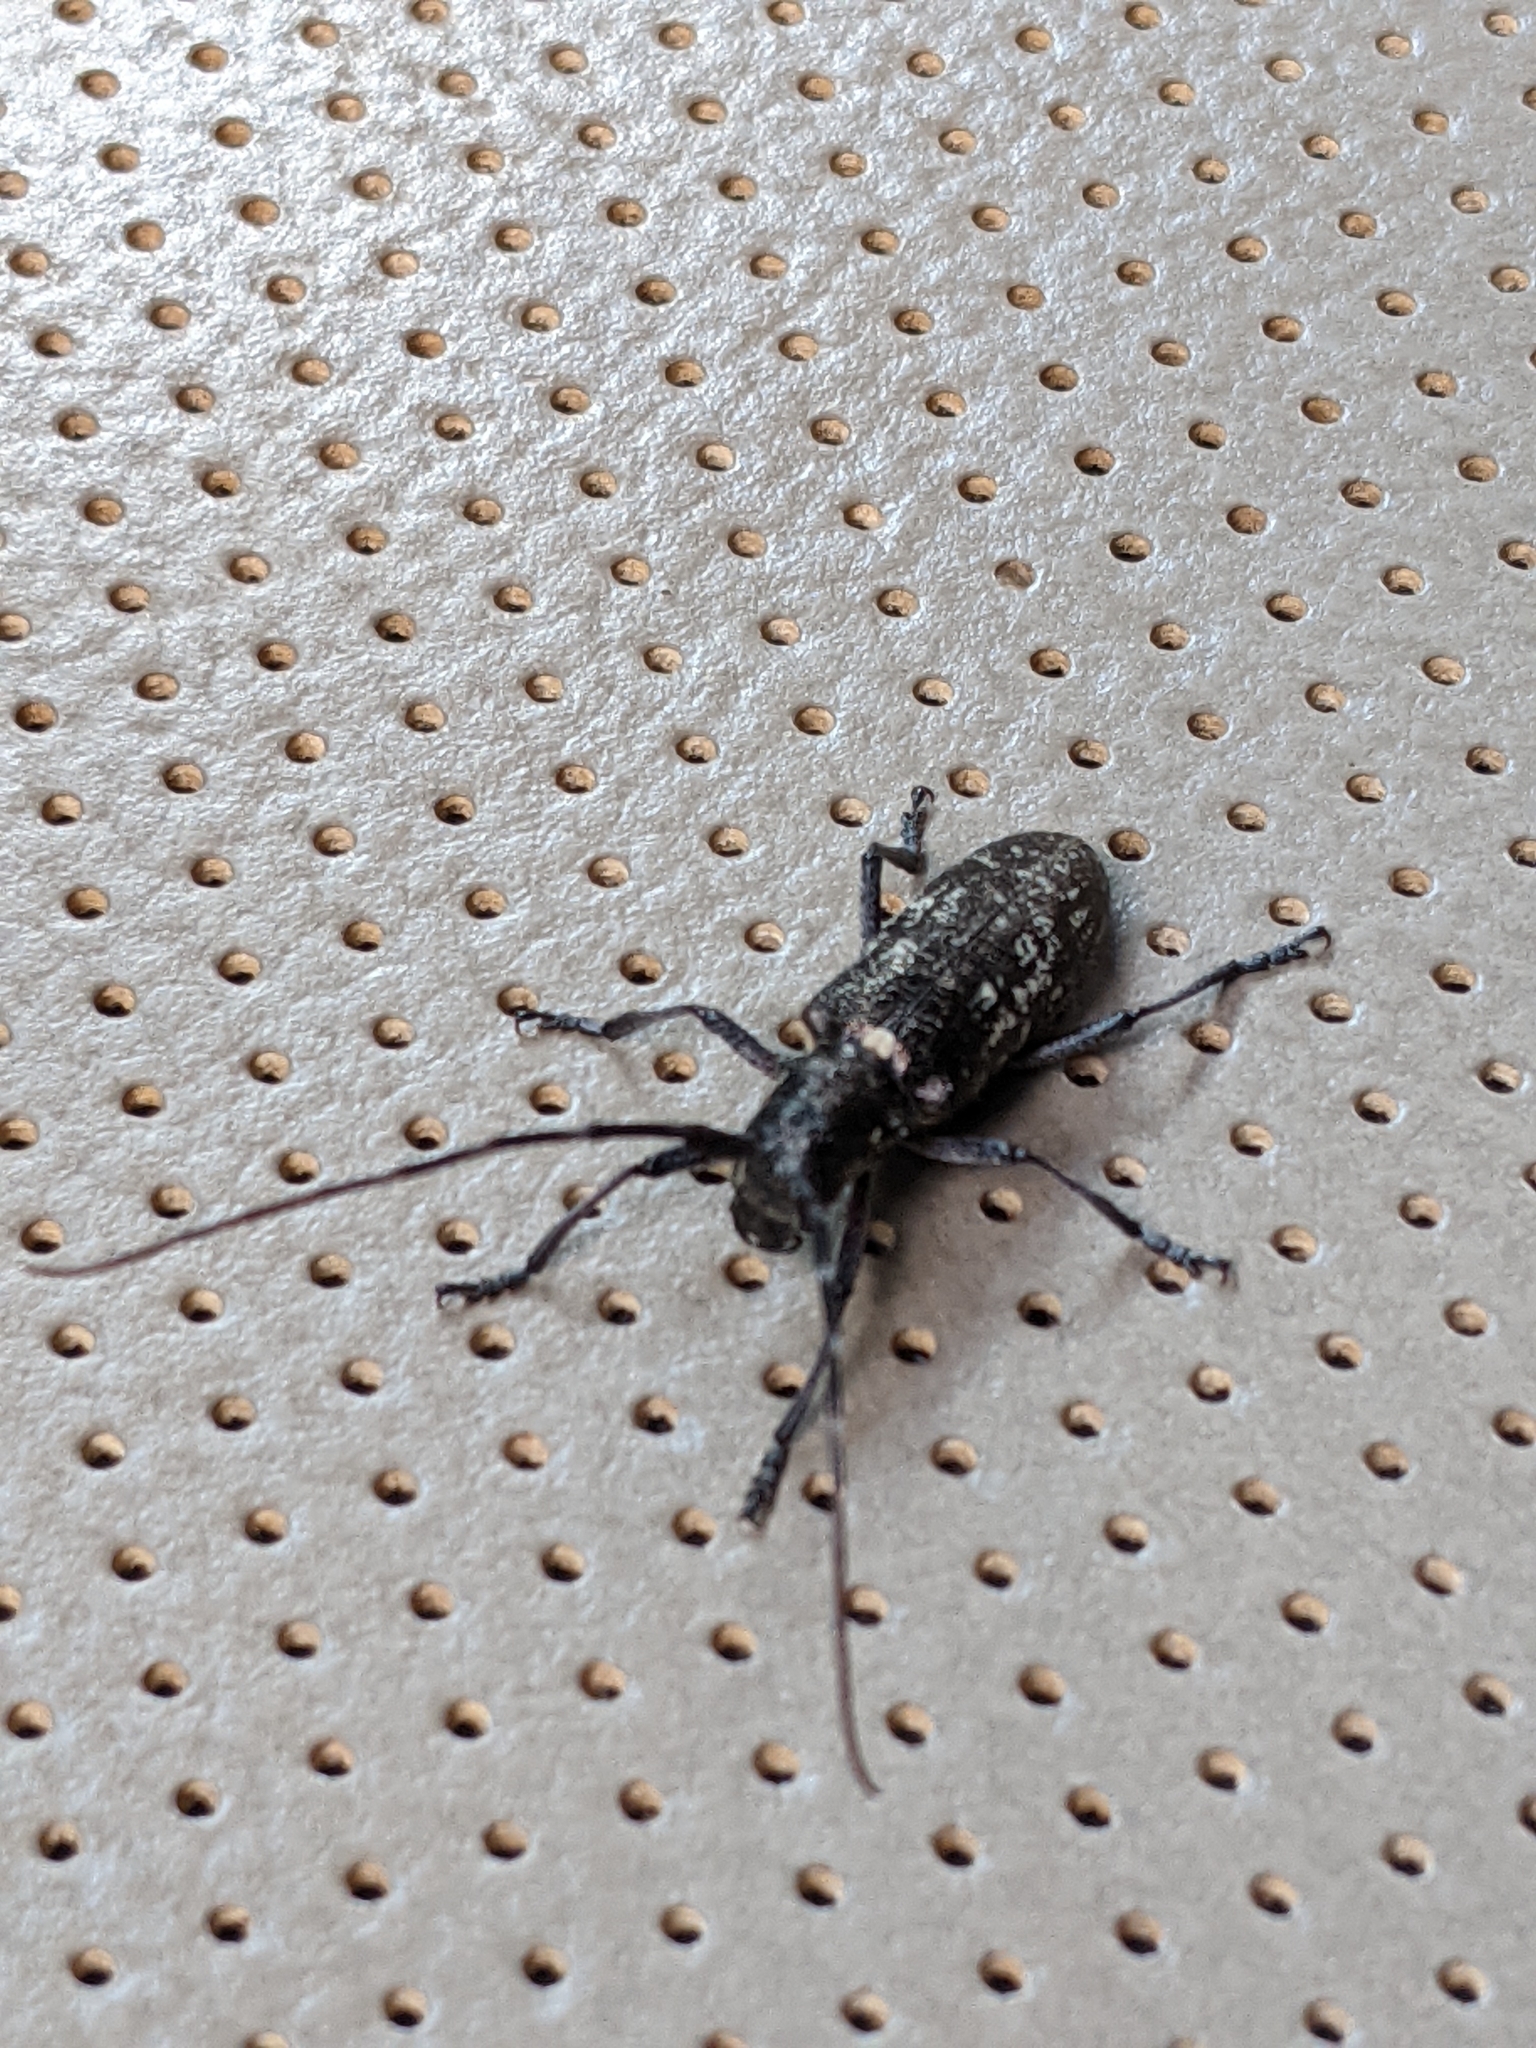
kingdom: Animalia
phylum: Arthropoda
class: Insecta
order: Coleoptera
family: Cerambycidae
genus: Monochamus
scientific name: Monochamus scutellatus
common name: White-spotted sawyer beetle
